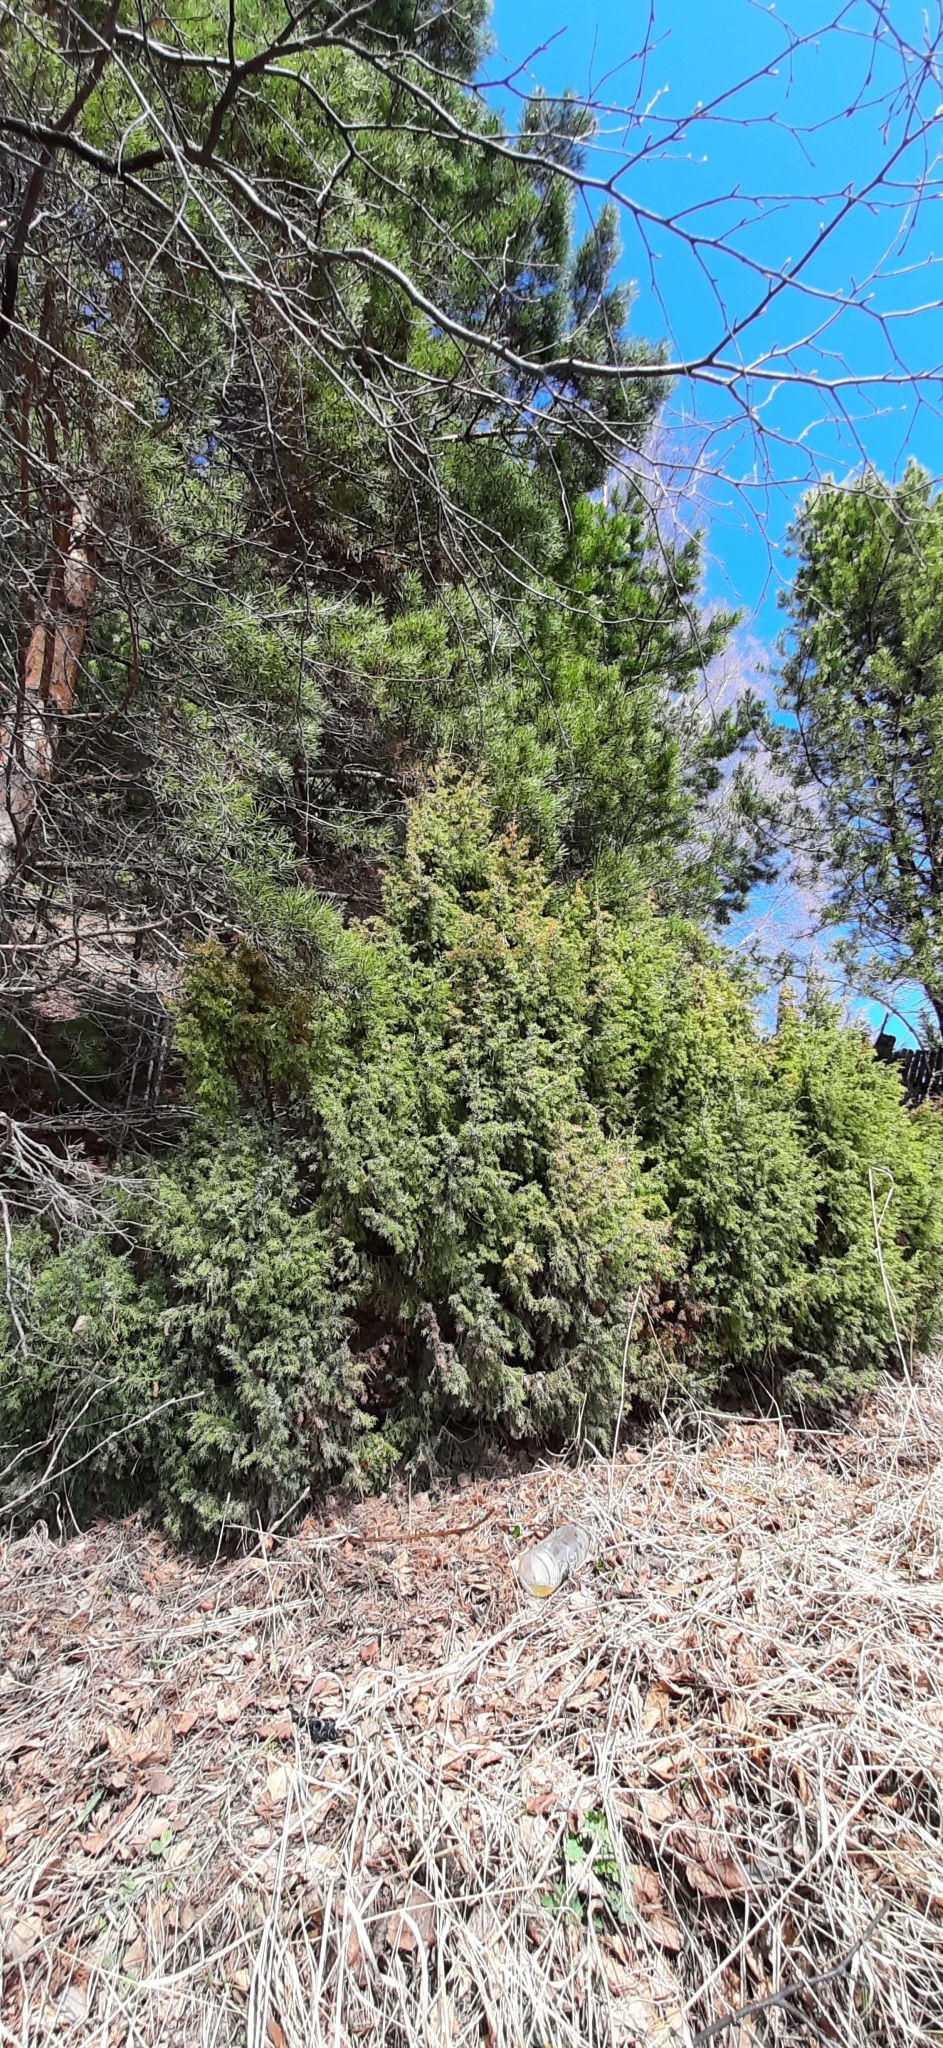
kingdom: Plantae
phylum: Tracheophyta
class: Pinopsida
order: Pinales
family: Cupressaceae
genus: Juniperus
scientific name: Juniperus communis
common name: Common juniper
